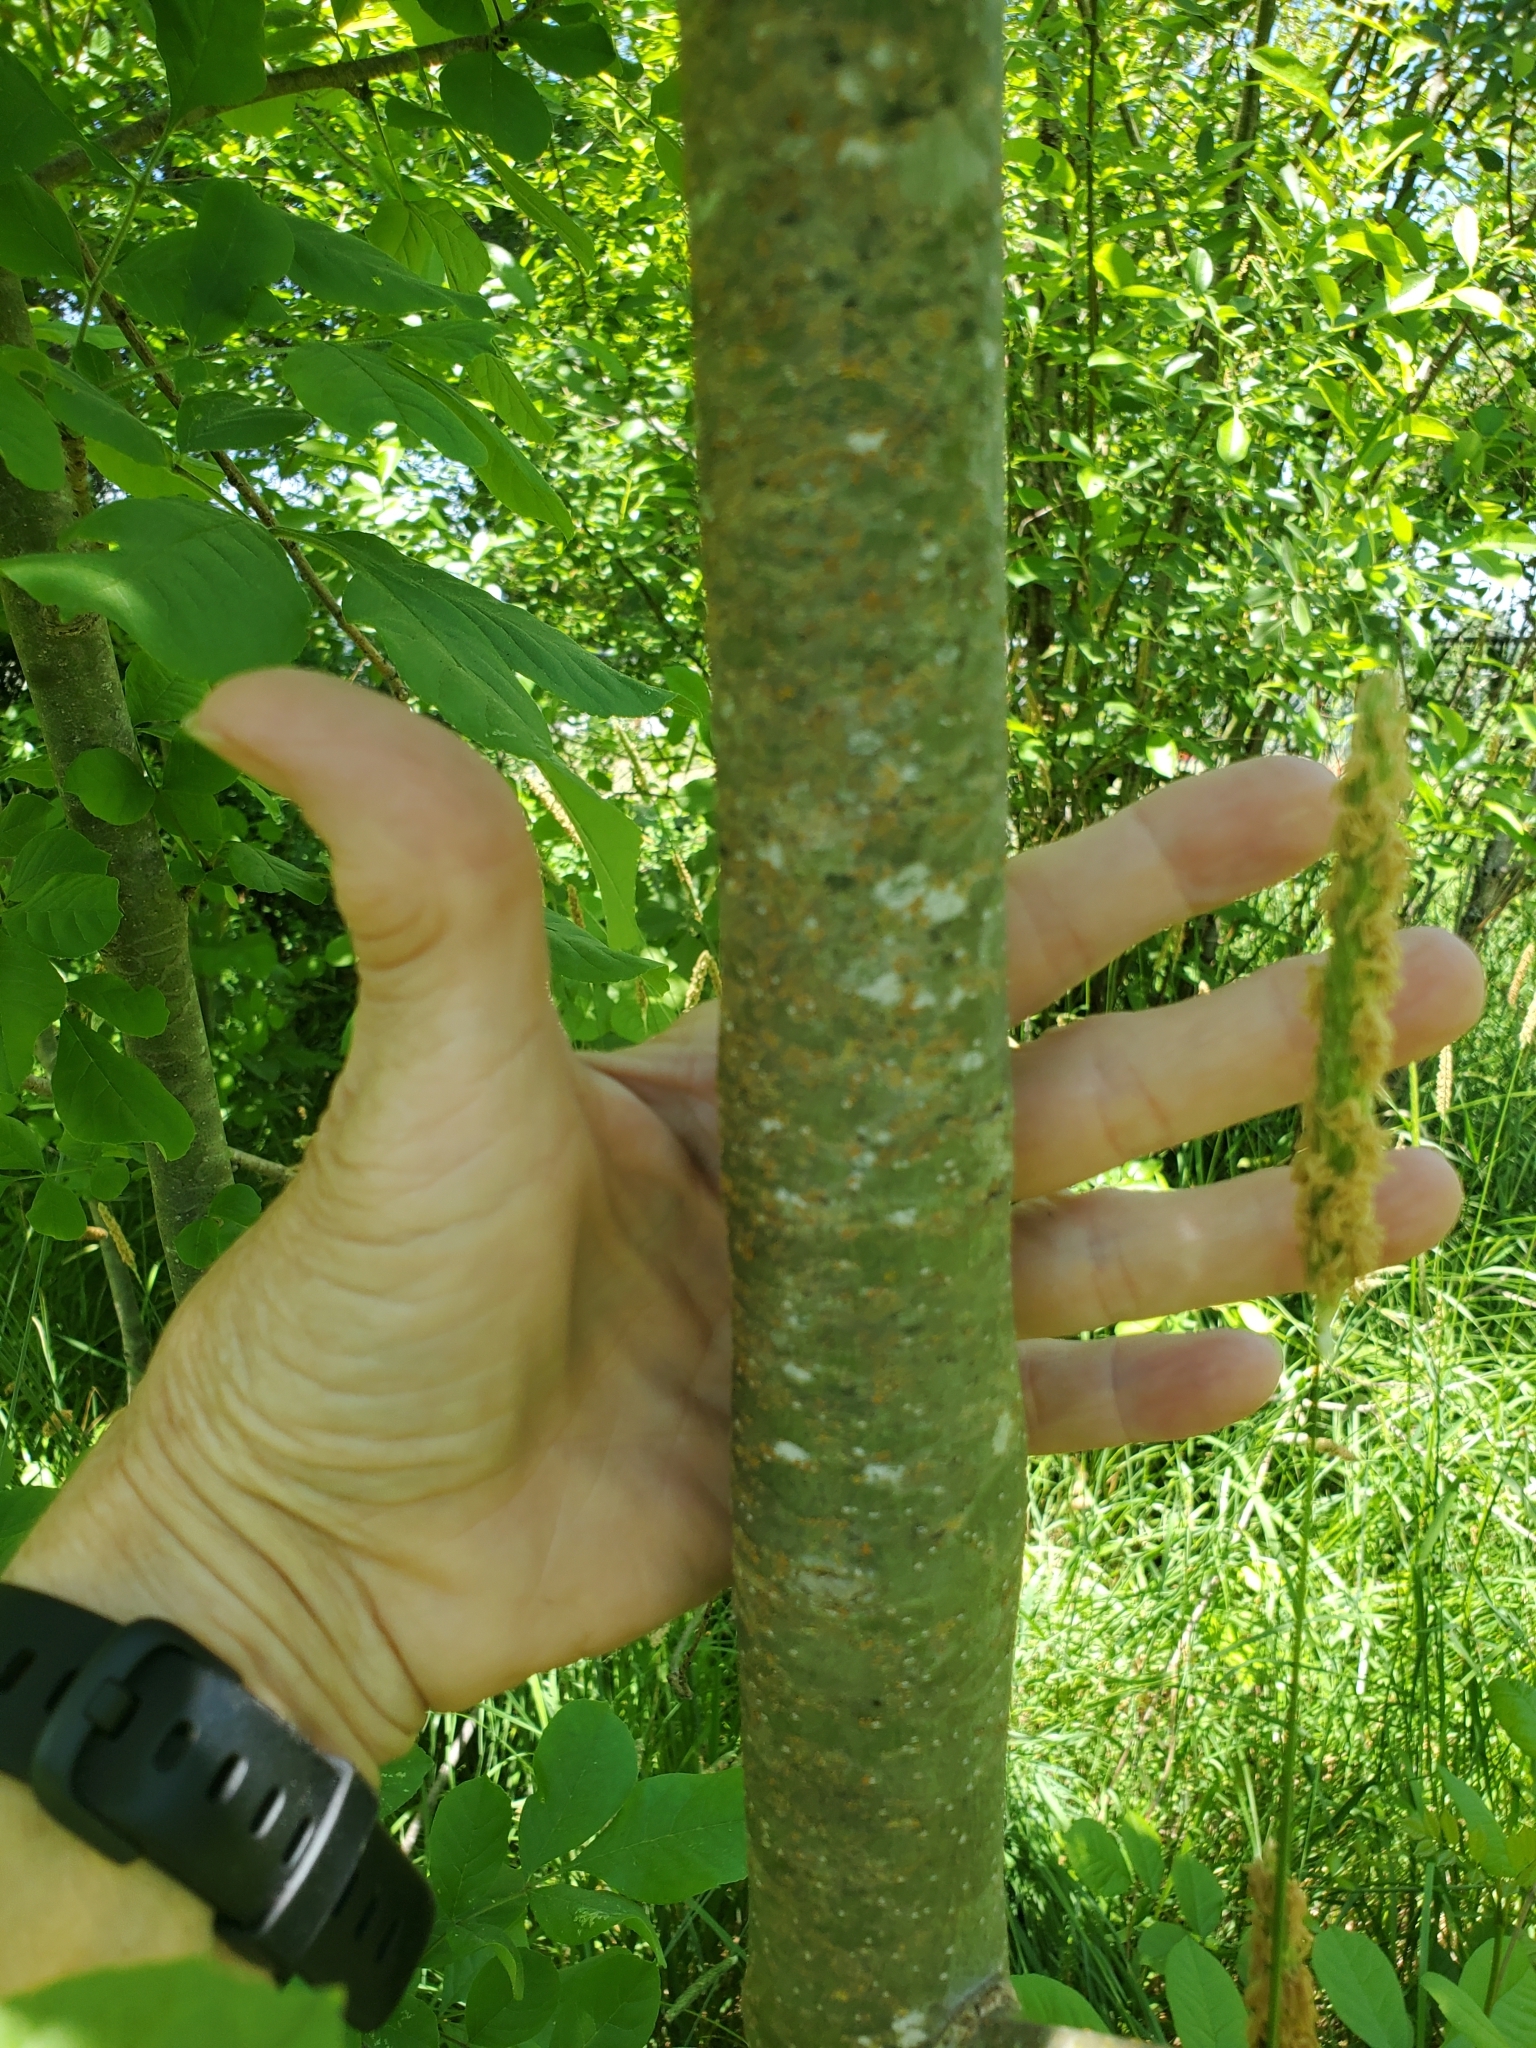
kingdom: Plantae
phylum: Tracheophyta
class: Magnoliopsida
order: Lamiales
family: Oleaceae
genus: Fraxinus
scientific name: Fraxinus latifolia
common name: Oregon ash
